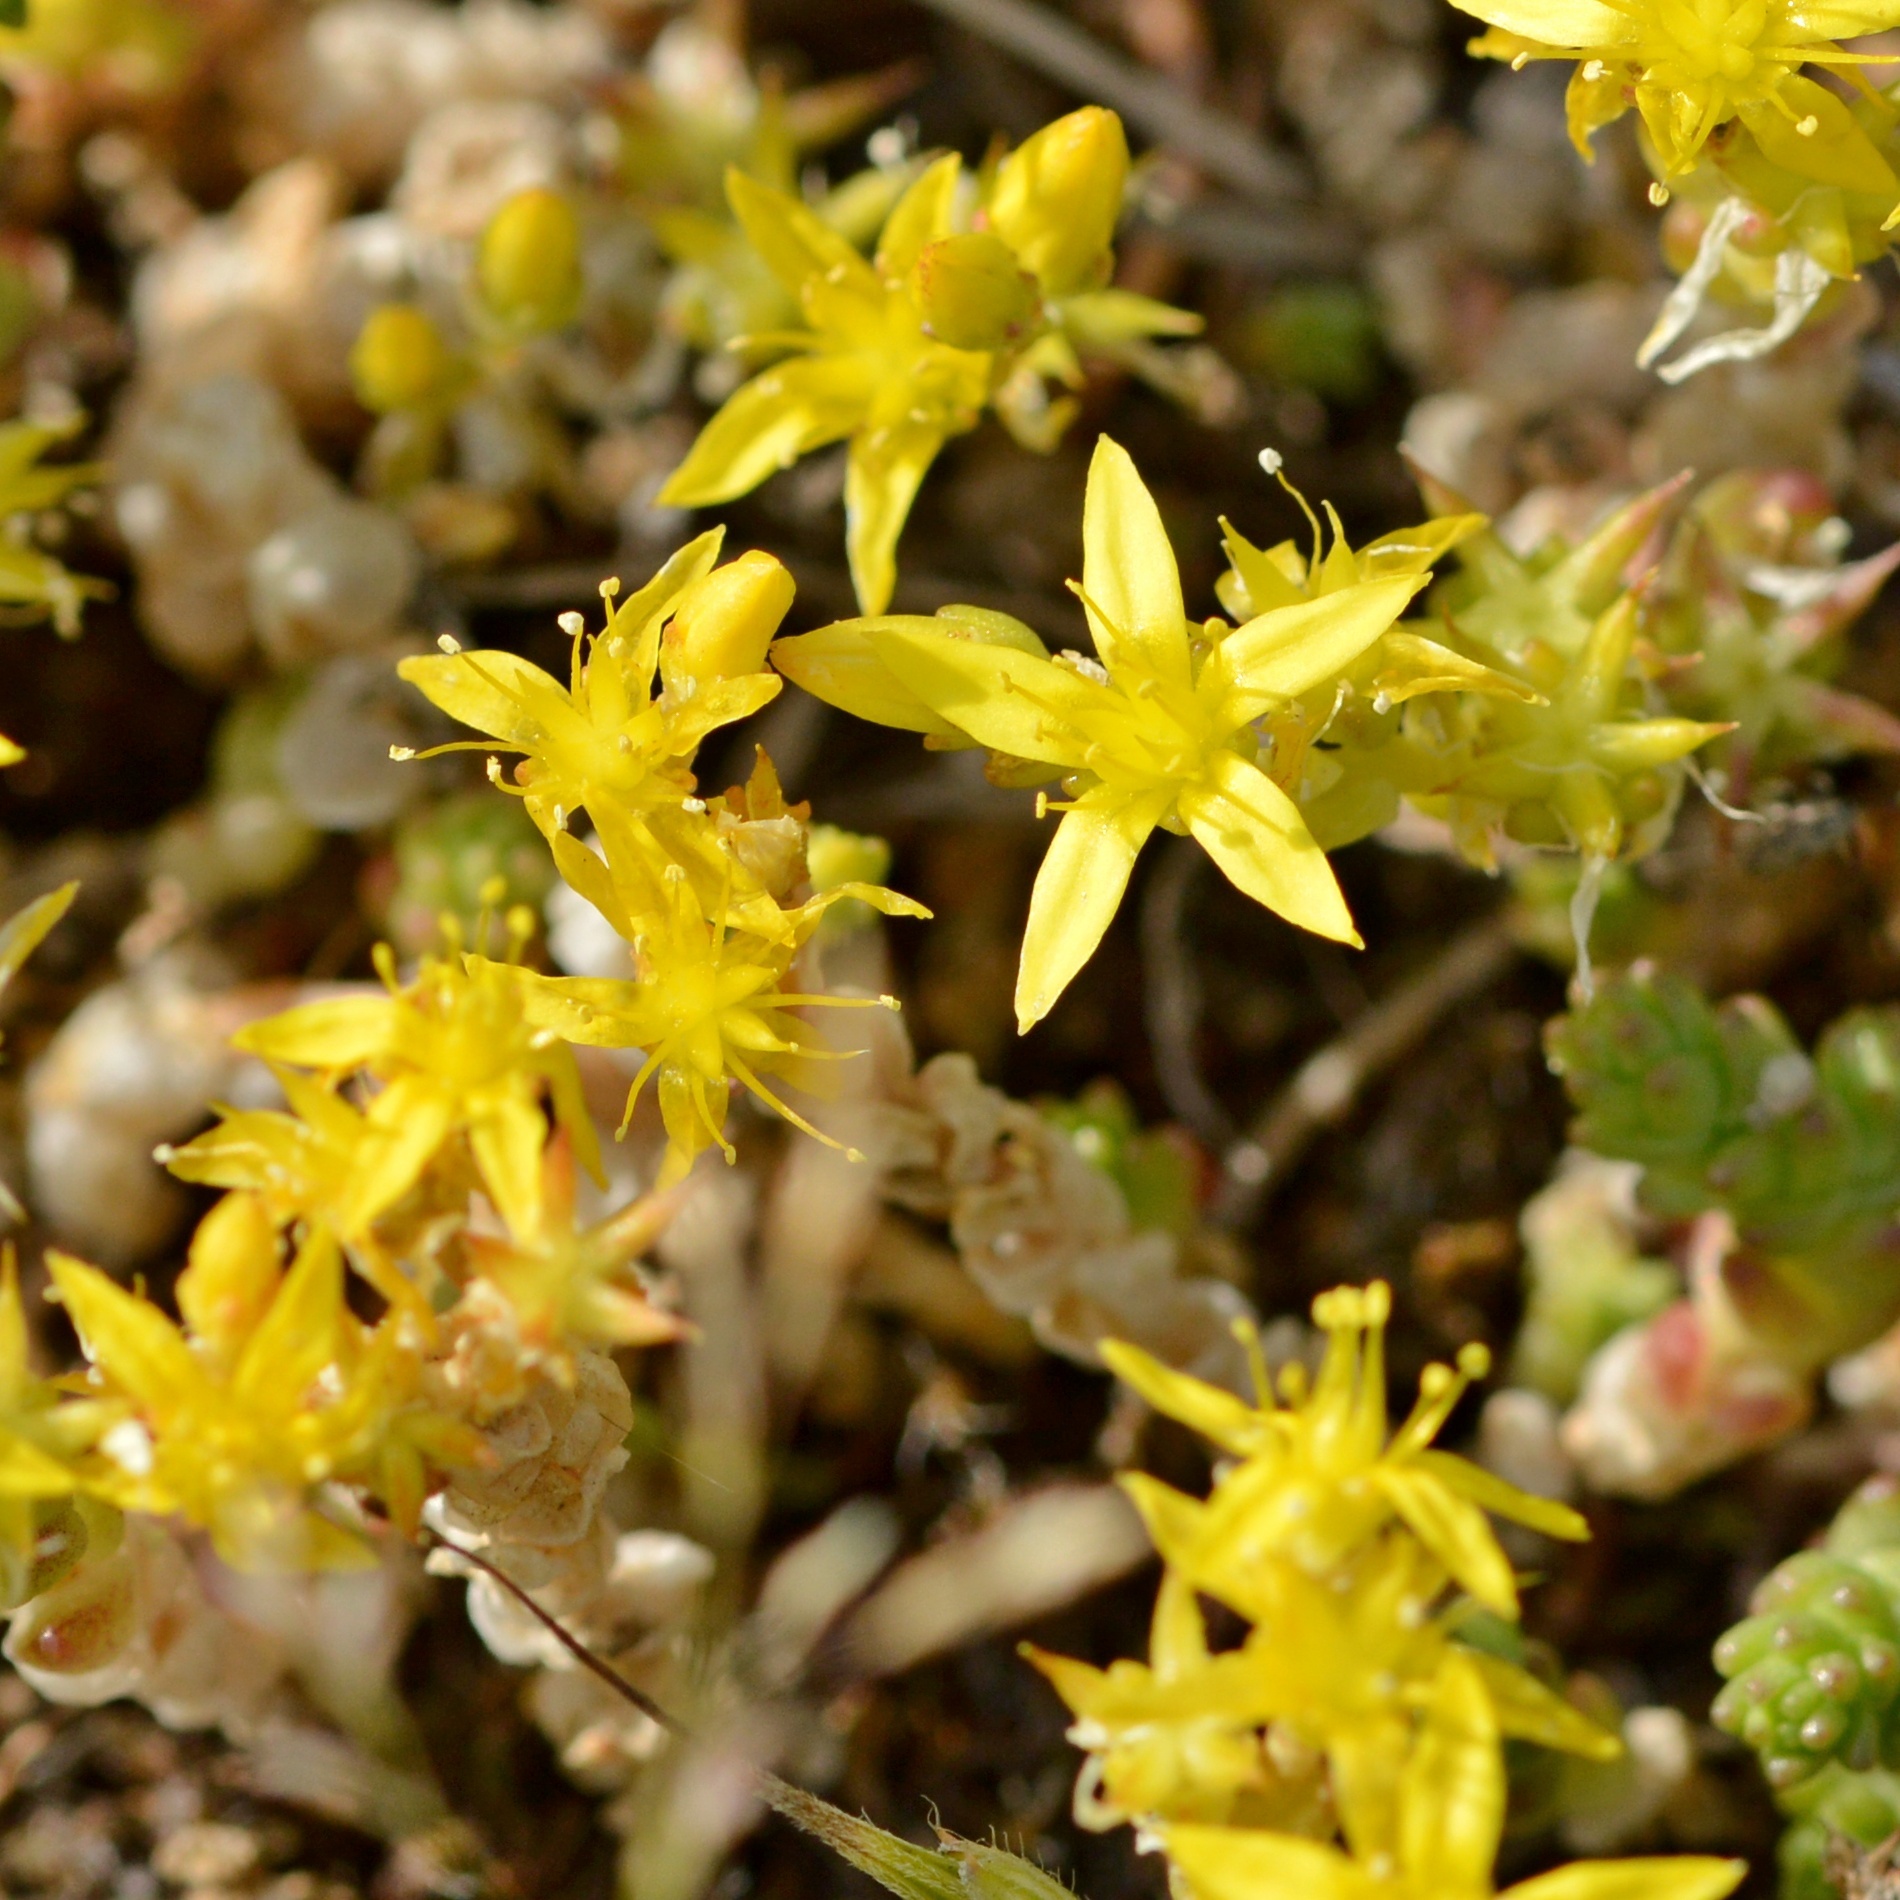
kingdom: Plantae
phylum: Tracheophyta
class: Magnoliopsida
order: Saxifragales
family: Crassulaceae
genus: Sedum
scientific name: Sedum acre
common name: Biting stonecrop
